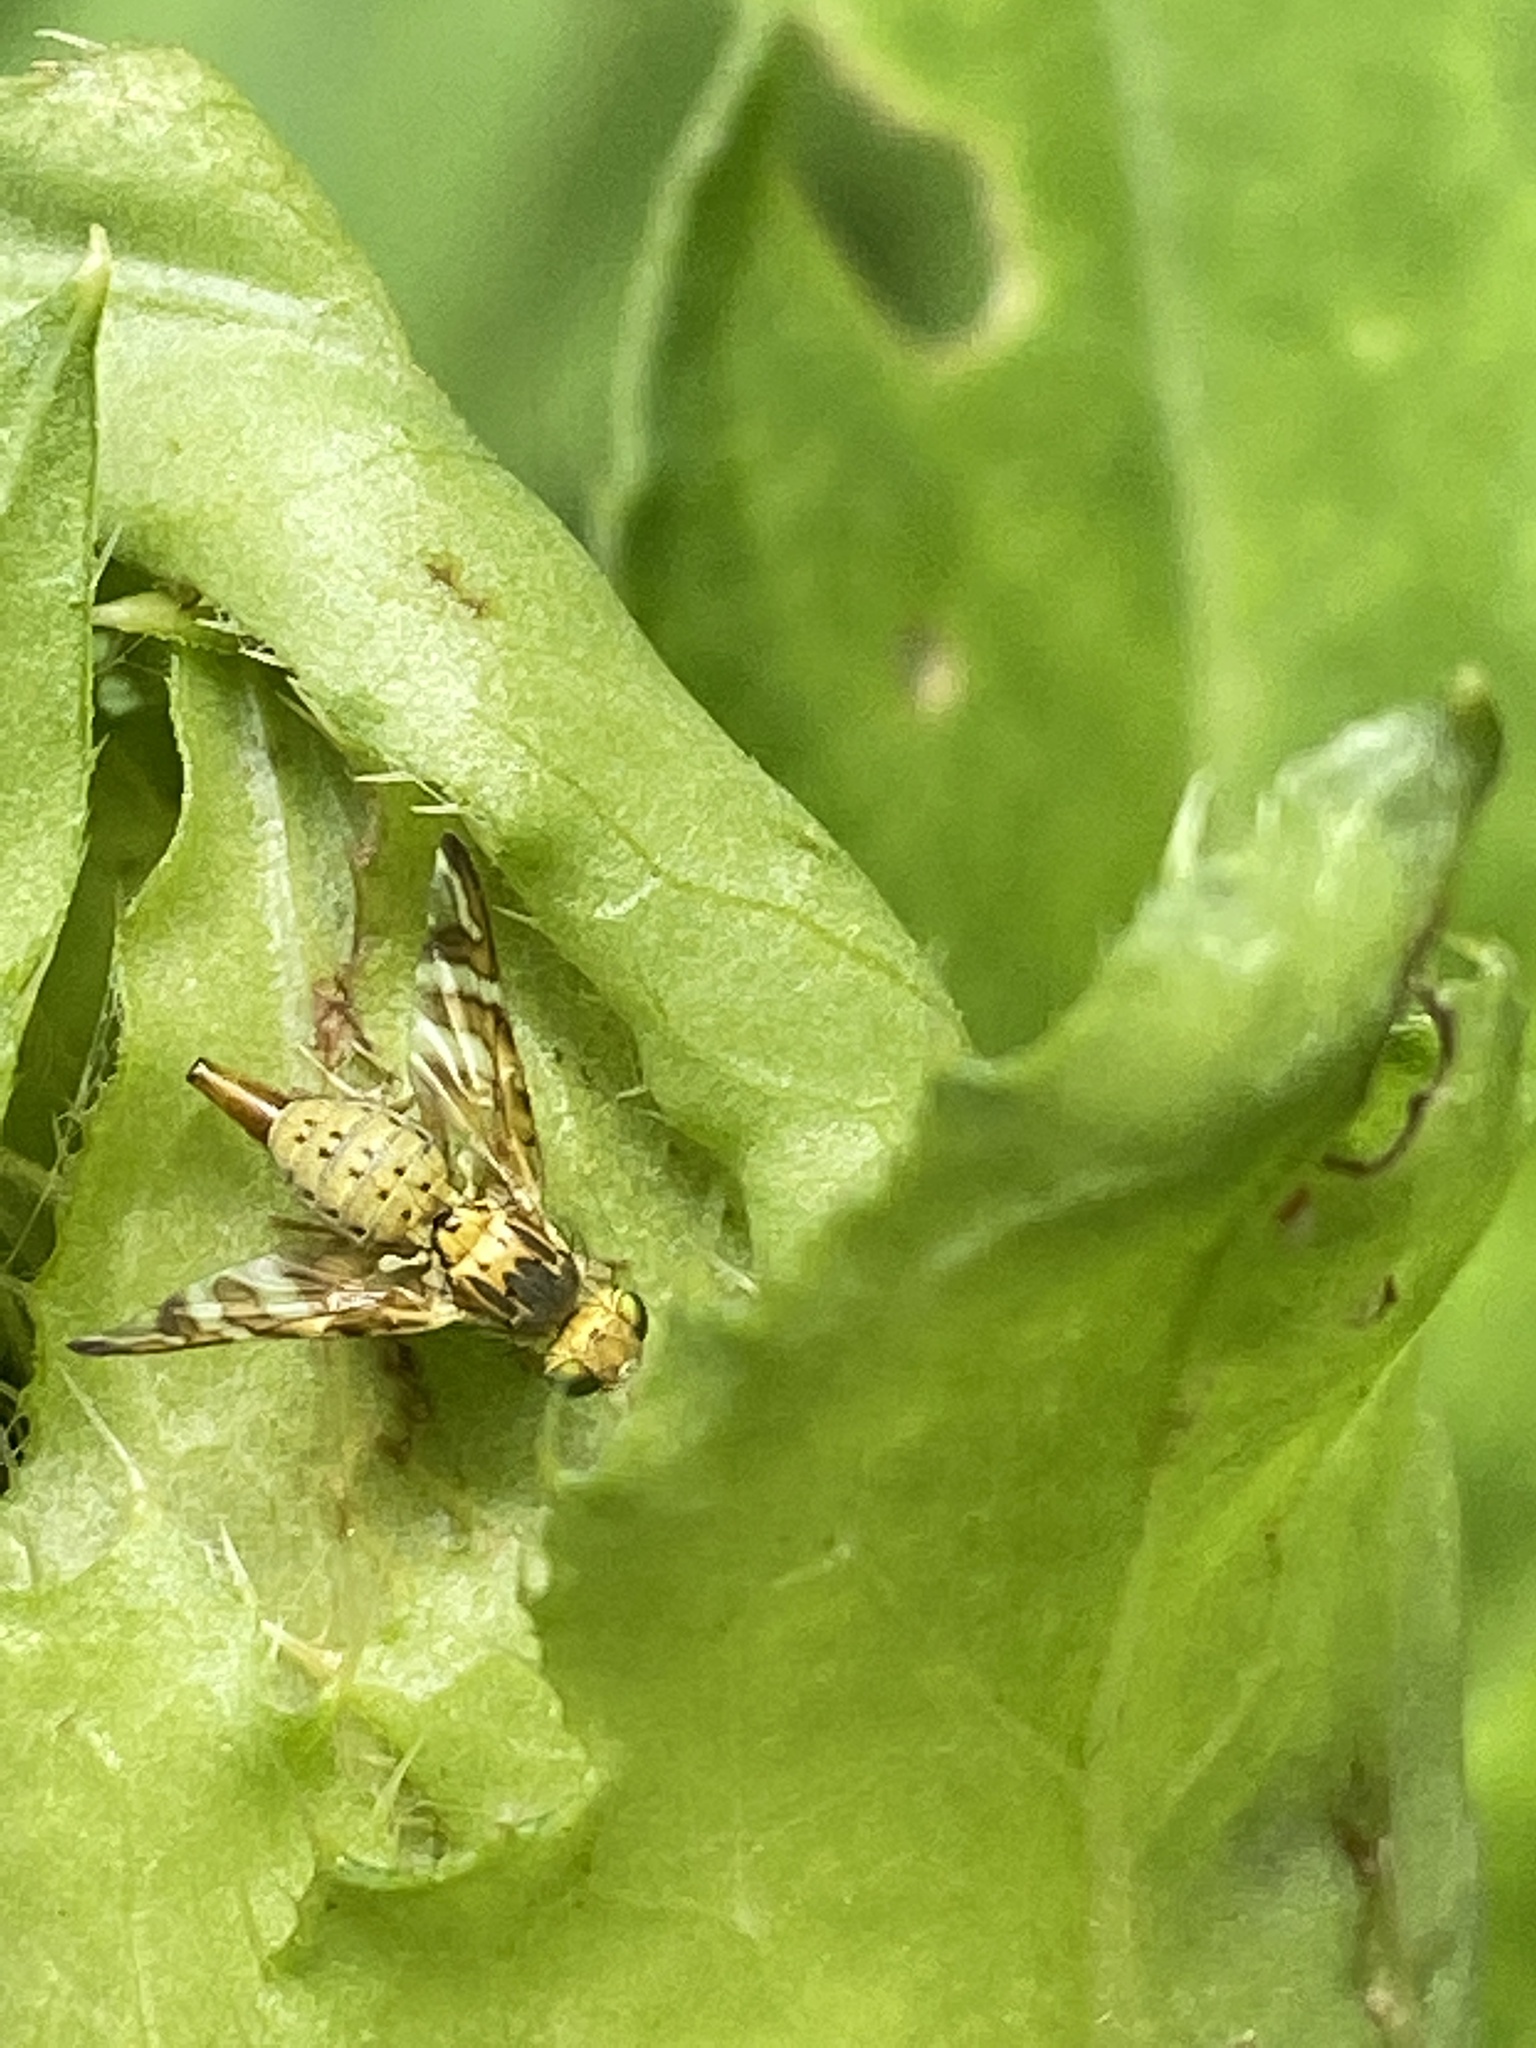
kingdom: Animalia
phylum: Arthropoda
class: Insecta
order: Diptera
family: Tephritidae
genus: Chaetostomella
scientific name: Chaetostomella cylindrica
